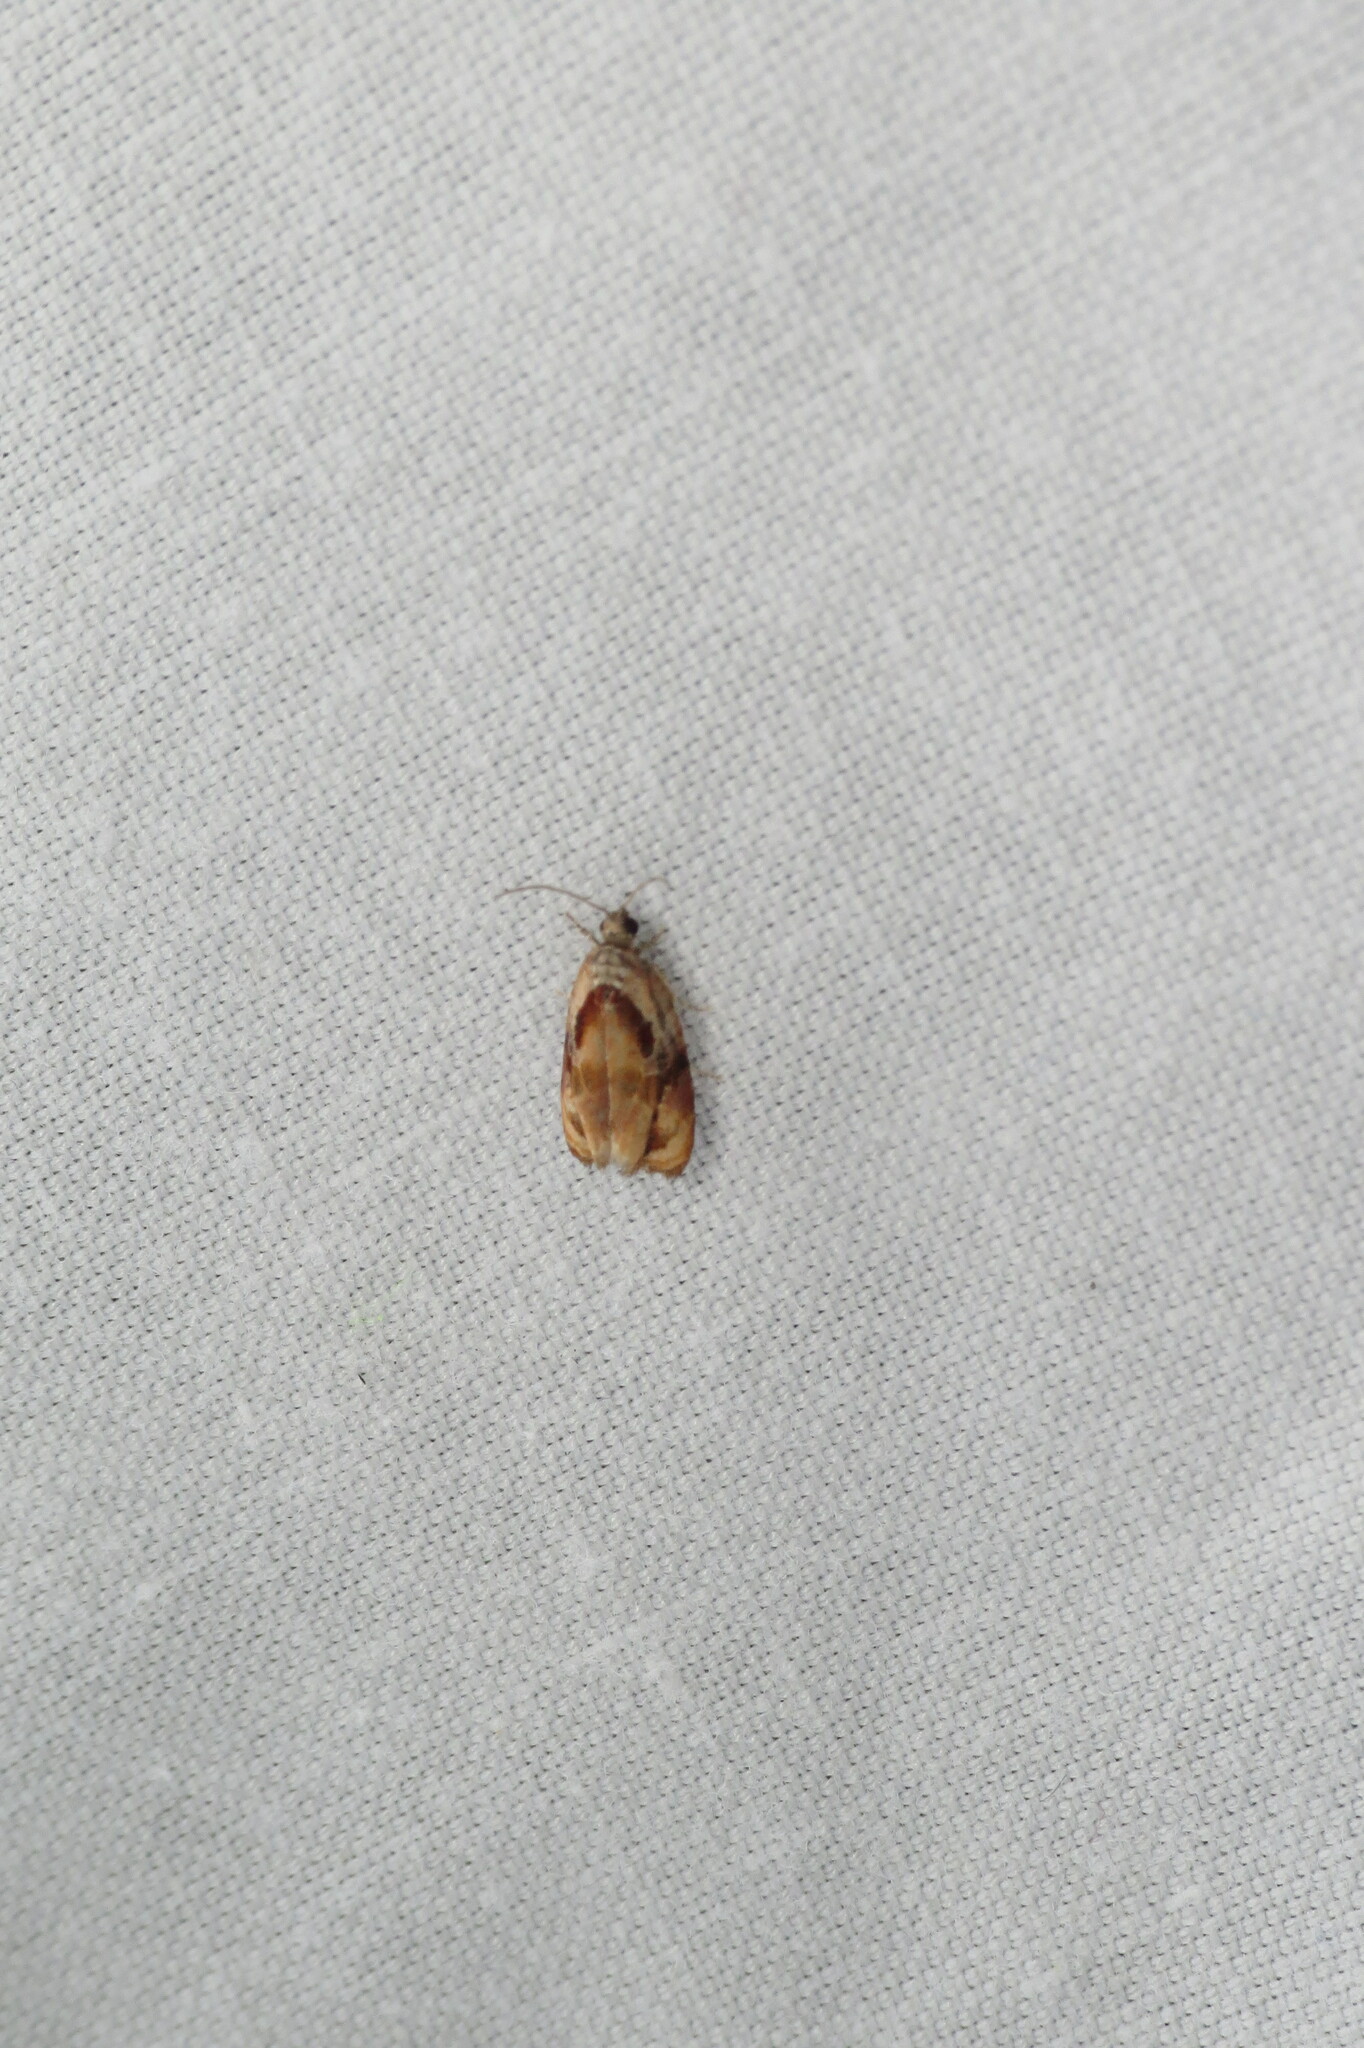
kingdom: Animalia
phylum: Arthropoda
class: Insecta
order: Lepidoptera
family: Tortricidae
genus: Zomaria
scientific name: Zomaria interruptolineana
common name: Broken-lined zomaria moth
